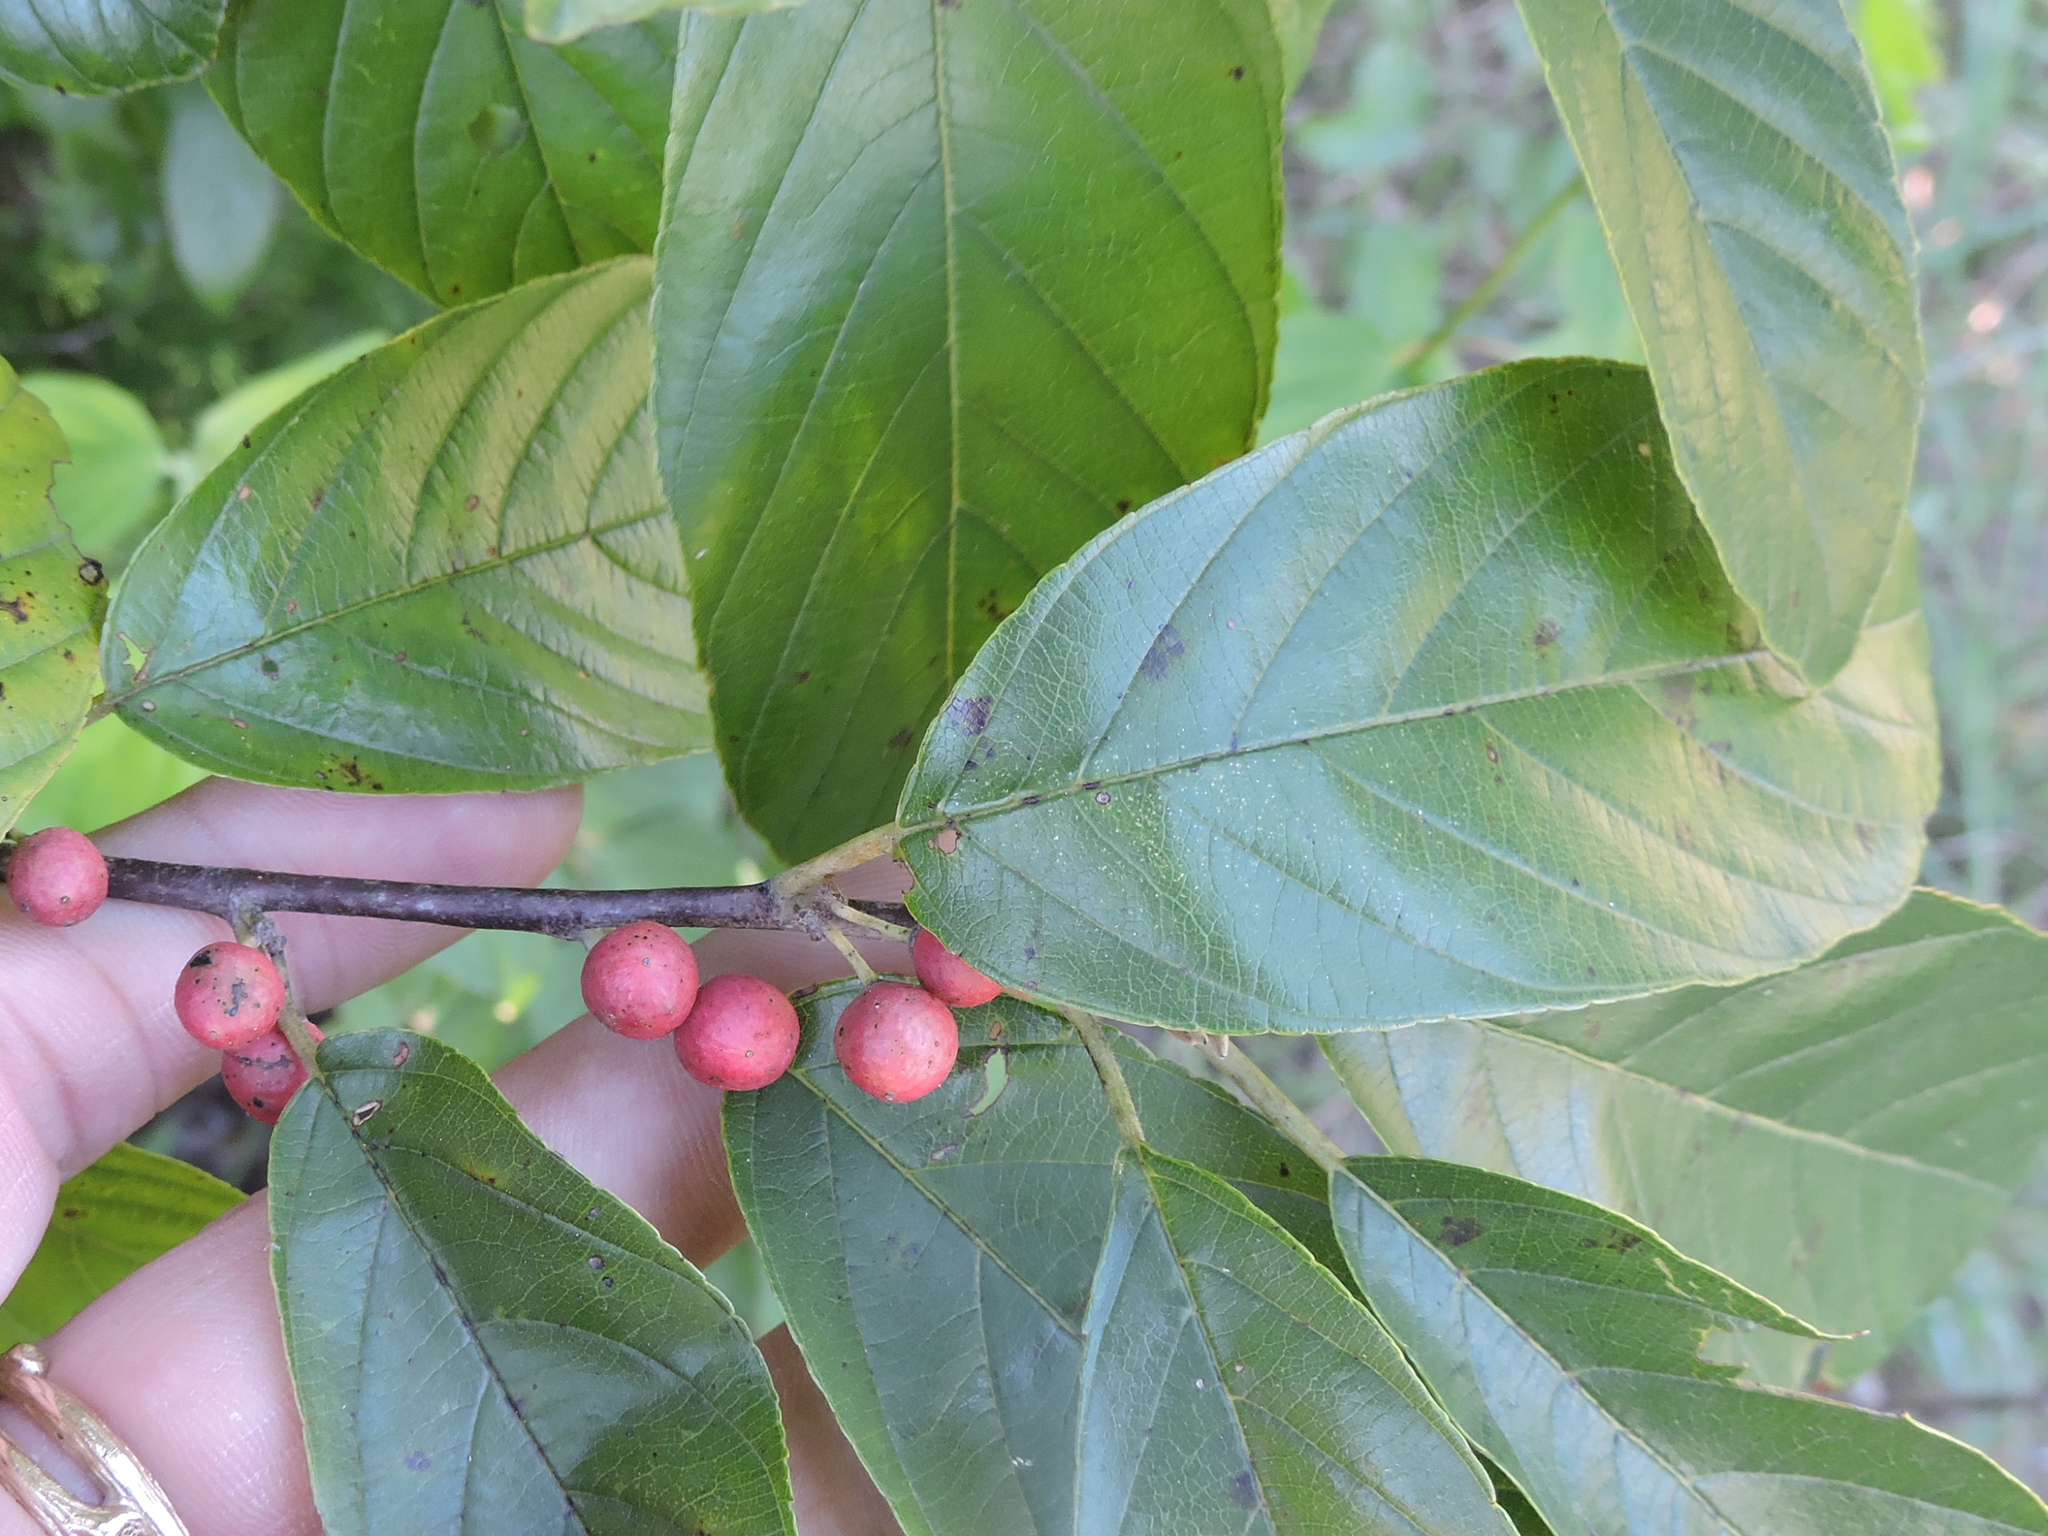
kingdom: Plantae
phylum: Tracheophyta
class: Magnoliopsida
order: Rosales
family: Rhamnaceae
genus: Frangula
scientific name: Frangula caroliniana
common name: Carolina buckthorn
